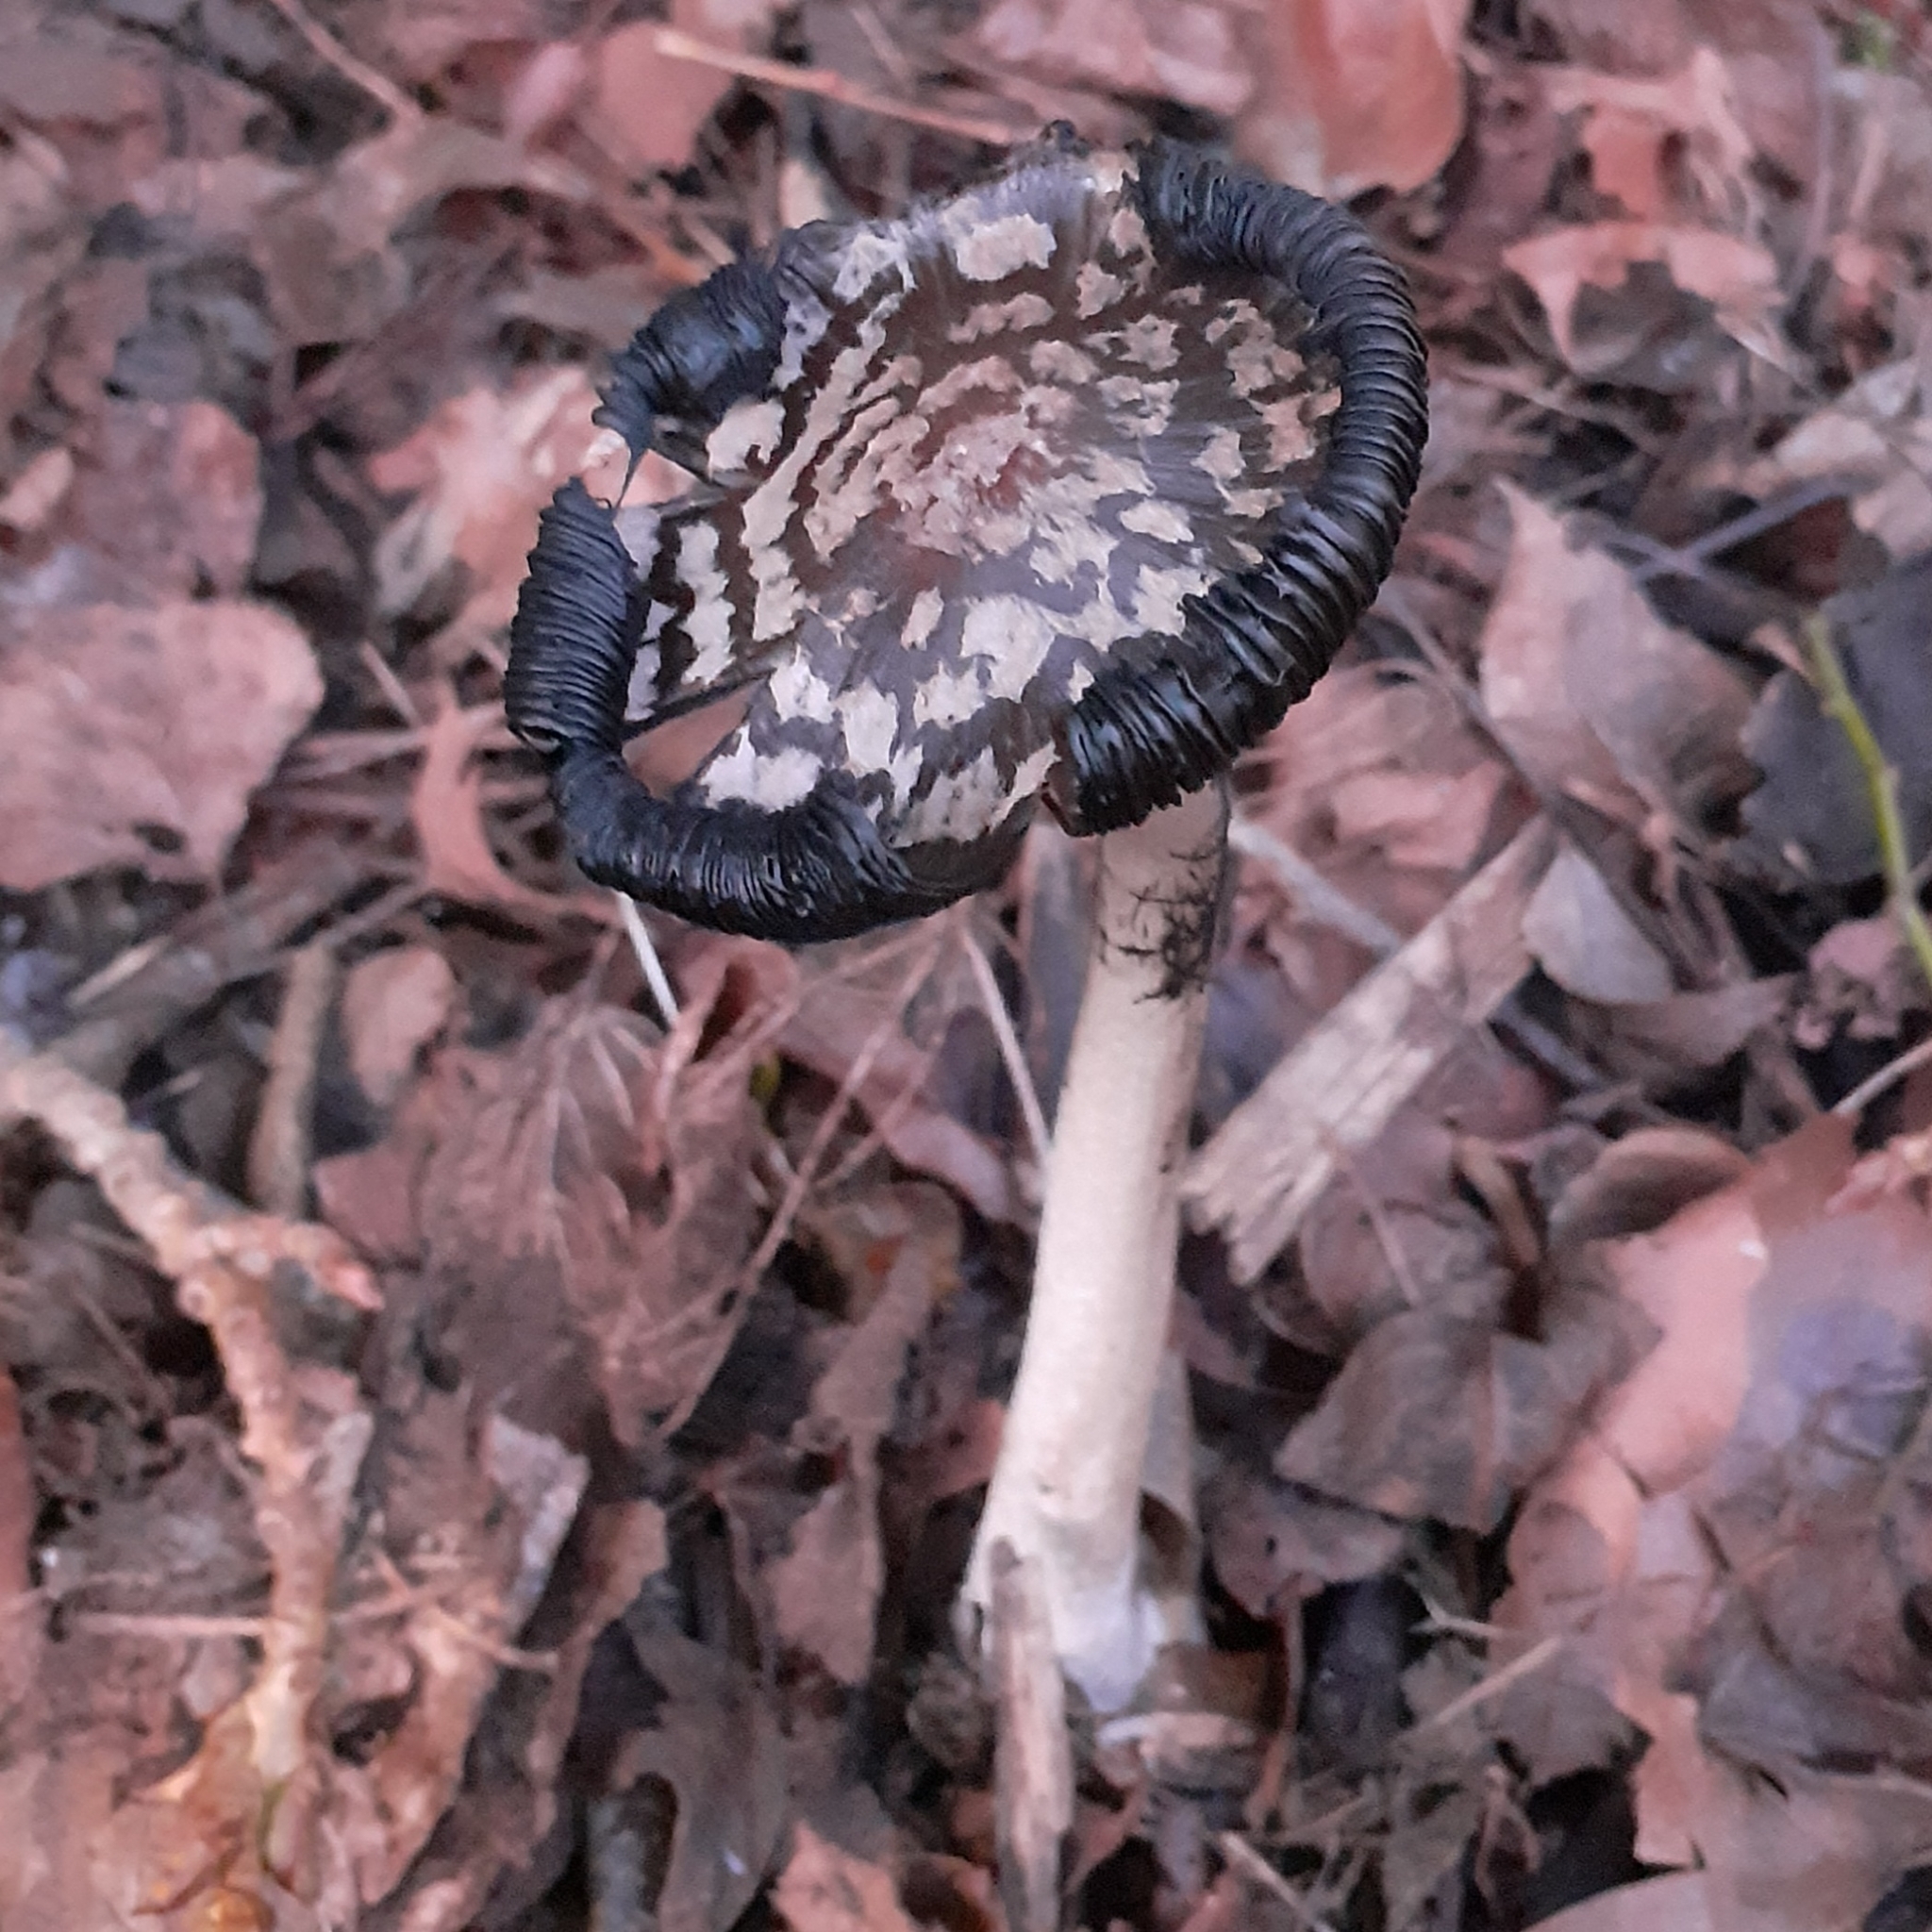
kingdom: Fungi
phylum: Basidiomycota
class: Agaricomycetes
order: Agaricales
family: Psathyrellaceae
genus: Coprinopsis
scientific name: Coprinopsis picacea
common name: Magpie inkcap
